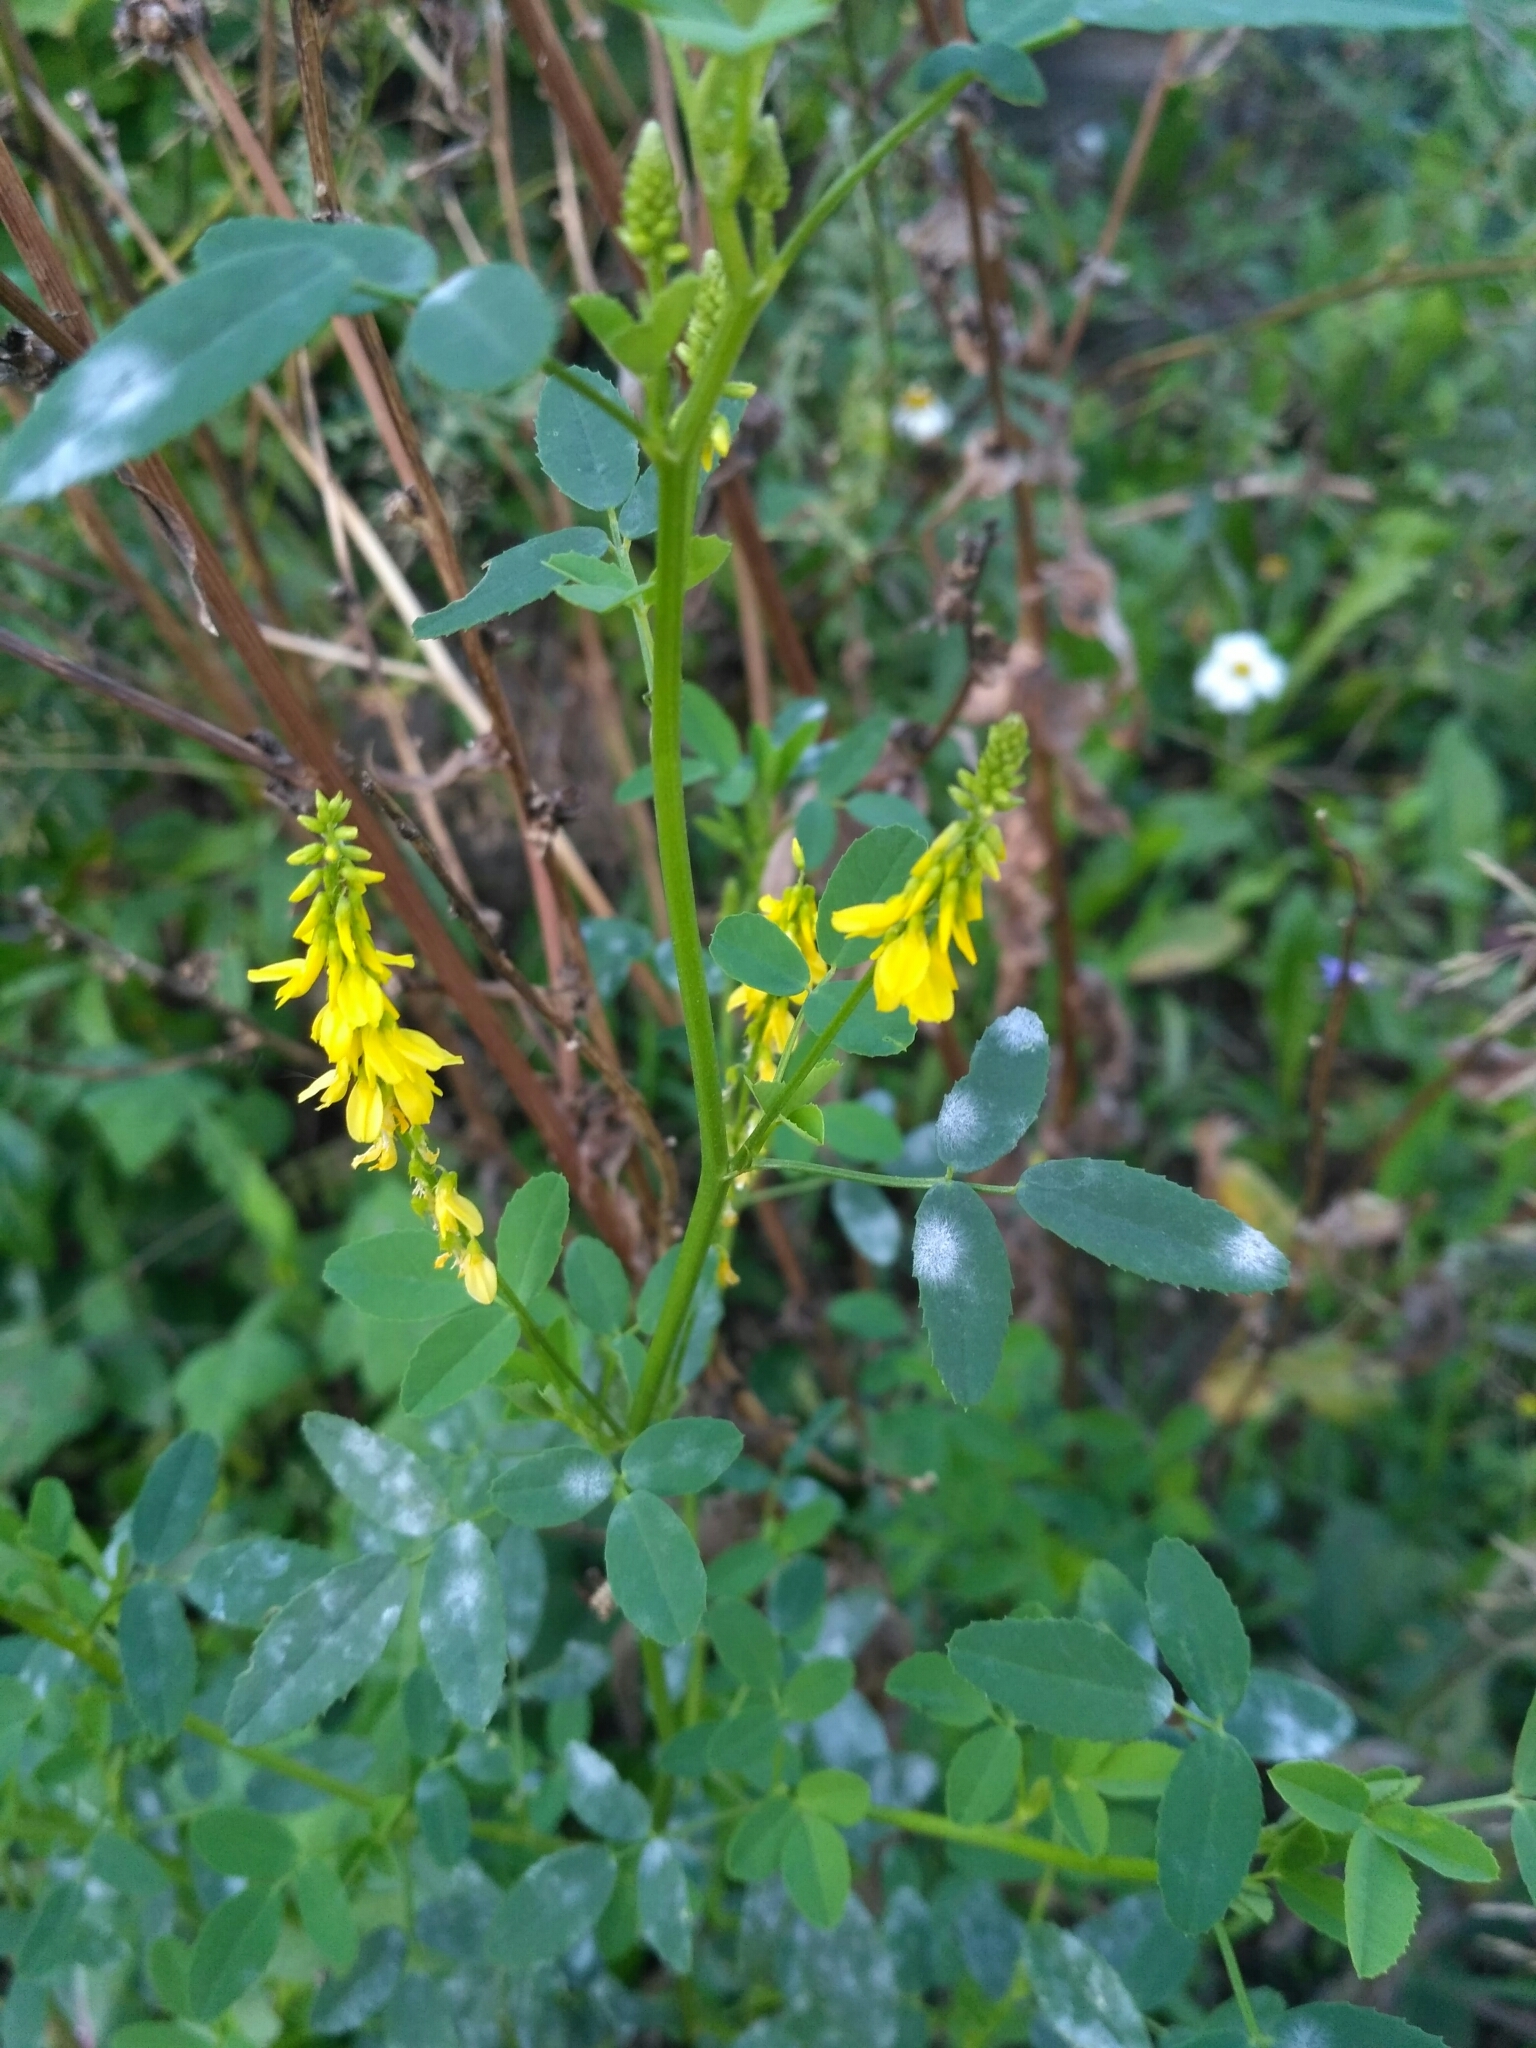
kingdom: Plantae
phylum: Tracheophyta
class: Magnoliopsida
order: Fabales
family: Fabaceae
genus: Melilotus
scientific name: Melilotus officinalis
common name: Sweetclover
